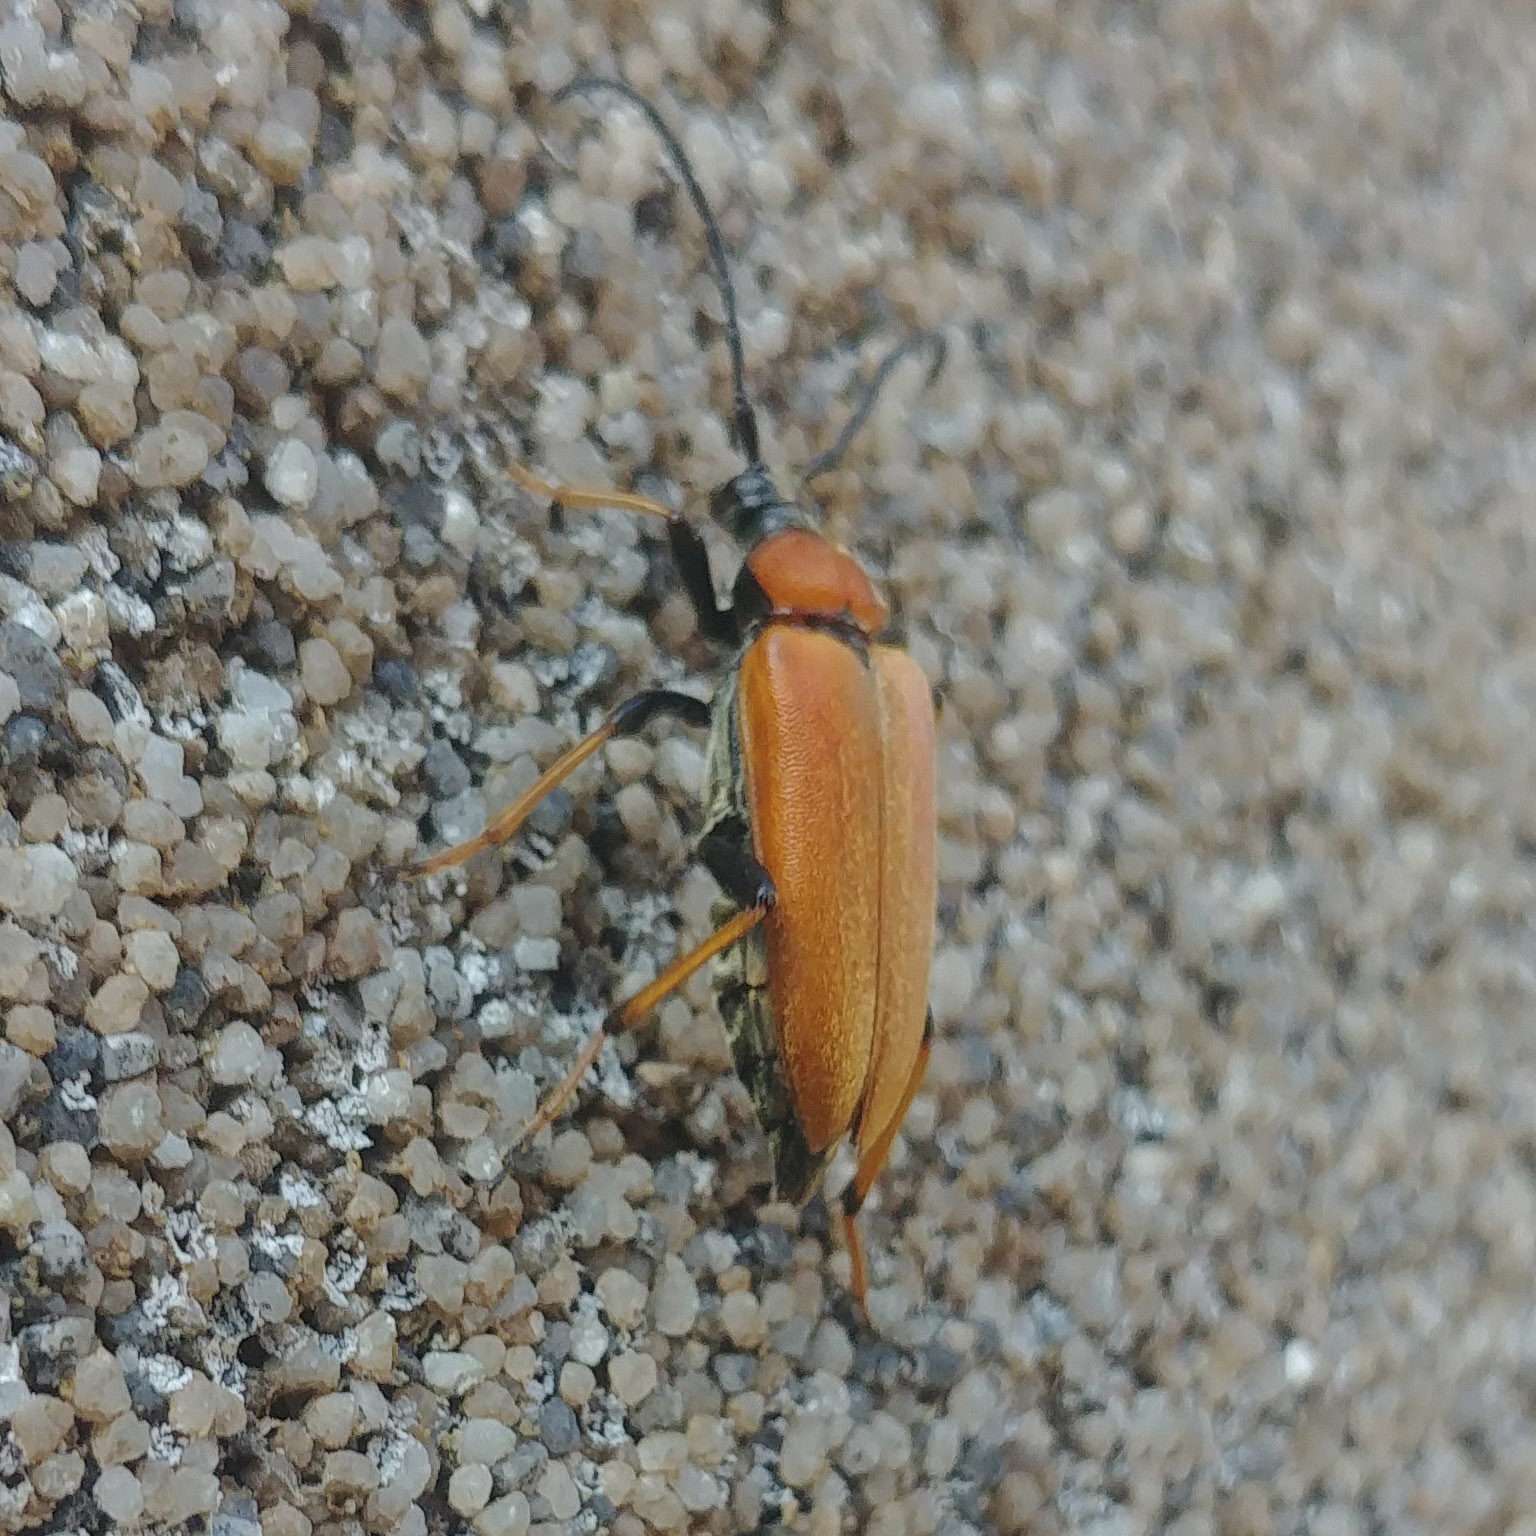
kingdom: Animalia
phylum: Arthropoda
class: Insecta
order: Coleoptera
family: Cerambycidae
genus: Stictoleptura
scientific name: Stictoleptura rubra
